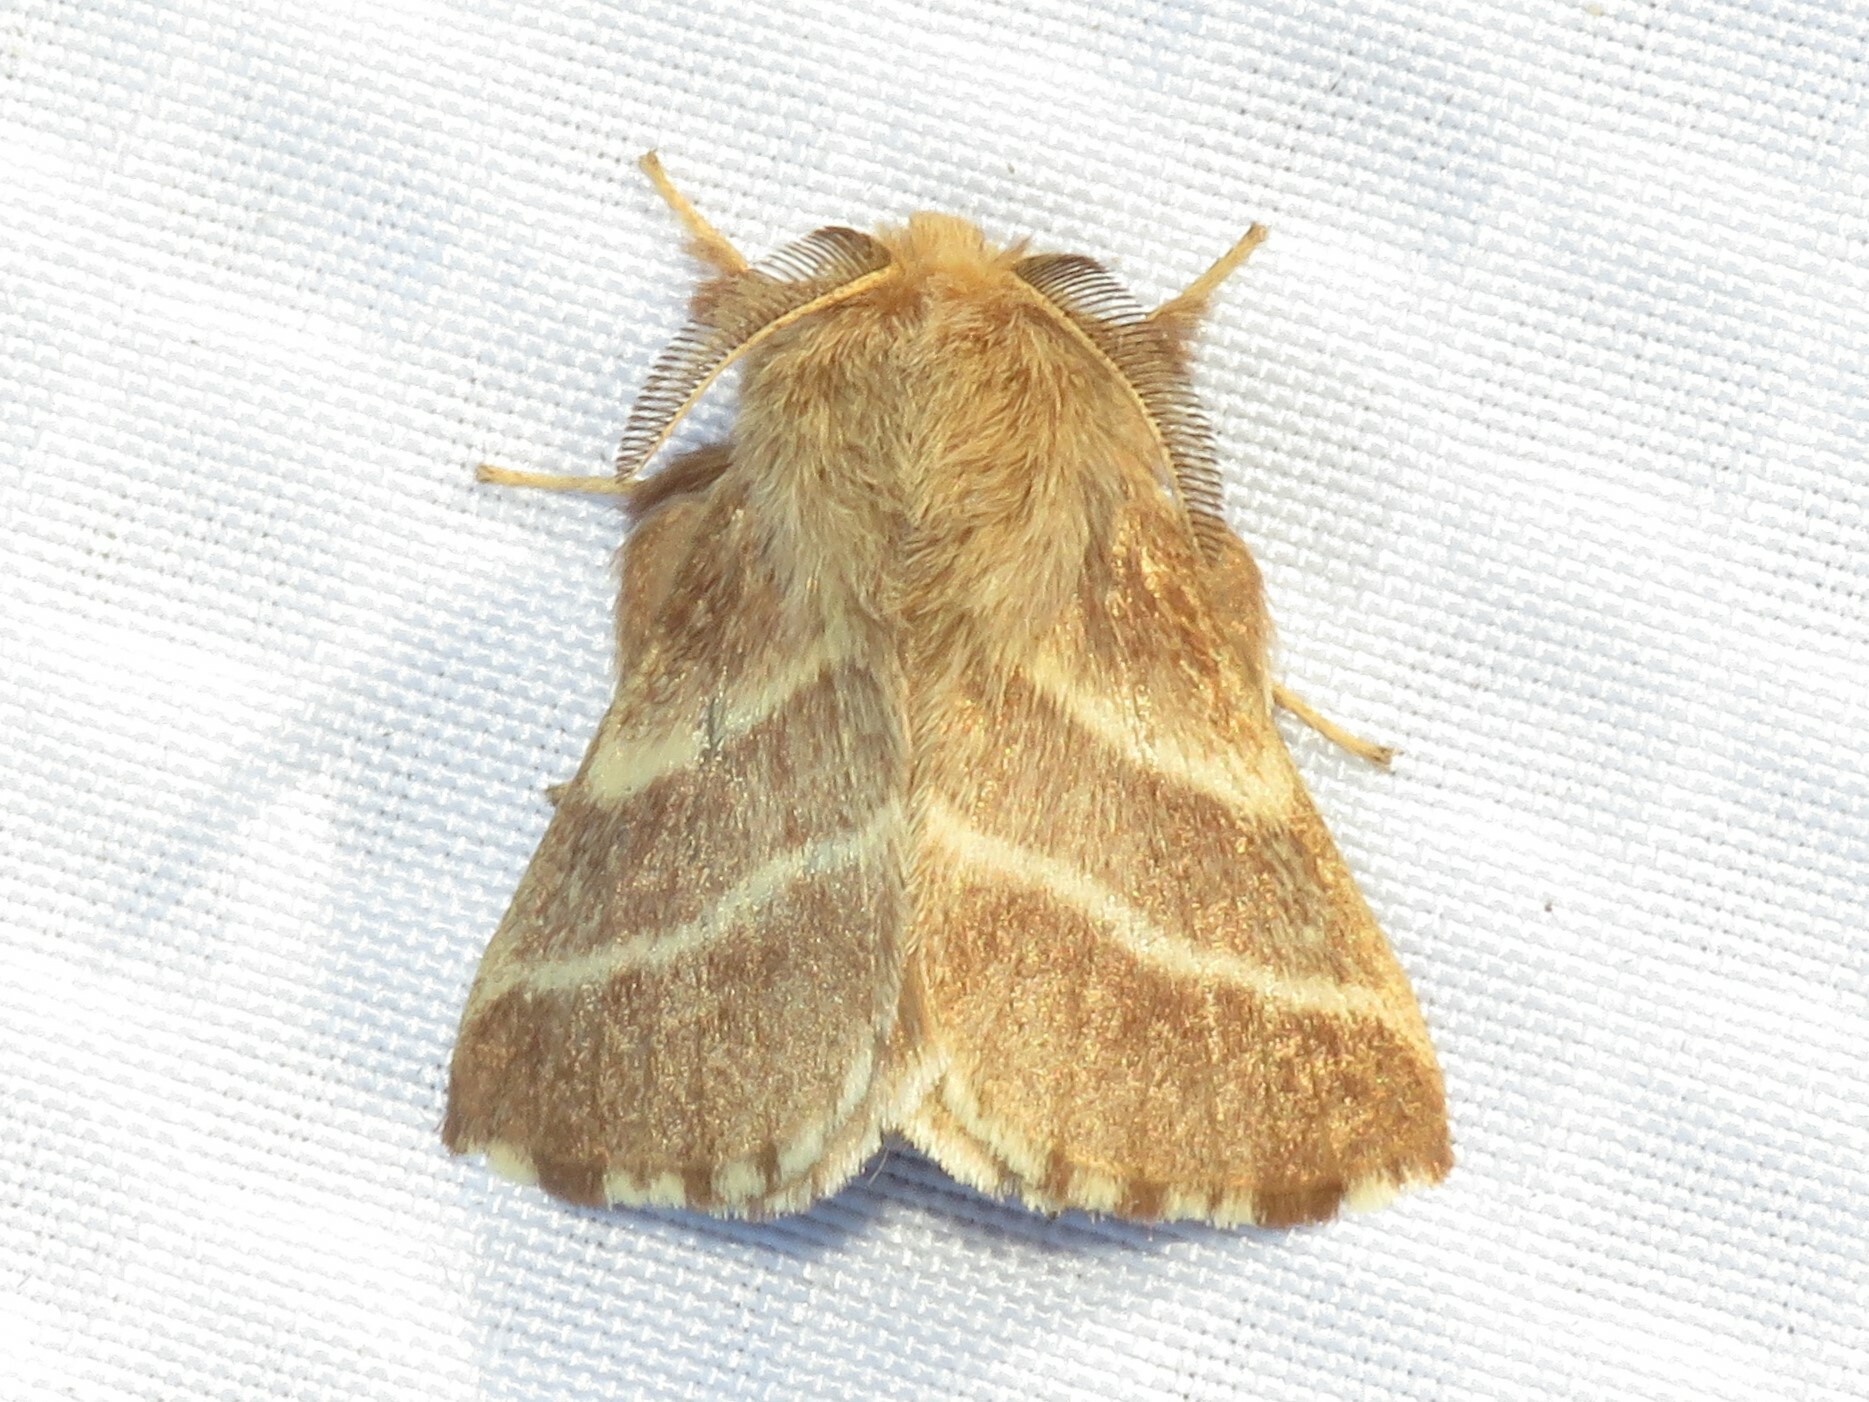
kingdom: Animalia
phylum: Arthropoda
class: Insecta
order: Lepidoptera
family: Lasiocampidae
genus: Malacosoma
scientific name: Malacosoma americana
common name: Eastern tent caterpillar moth
